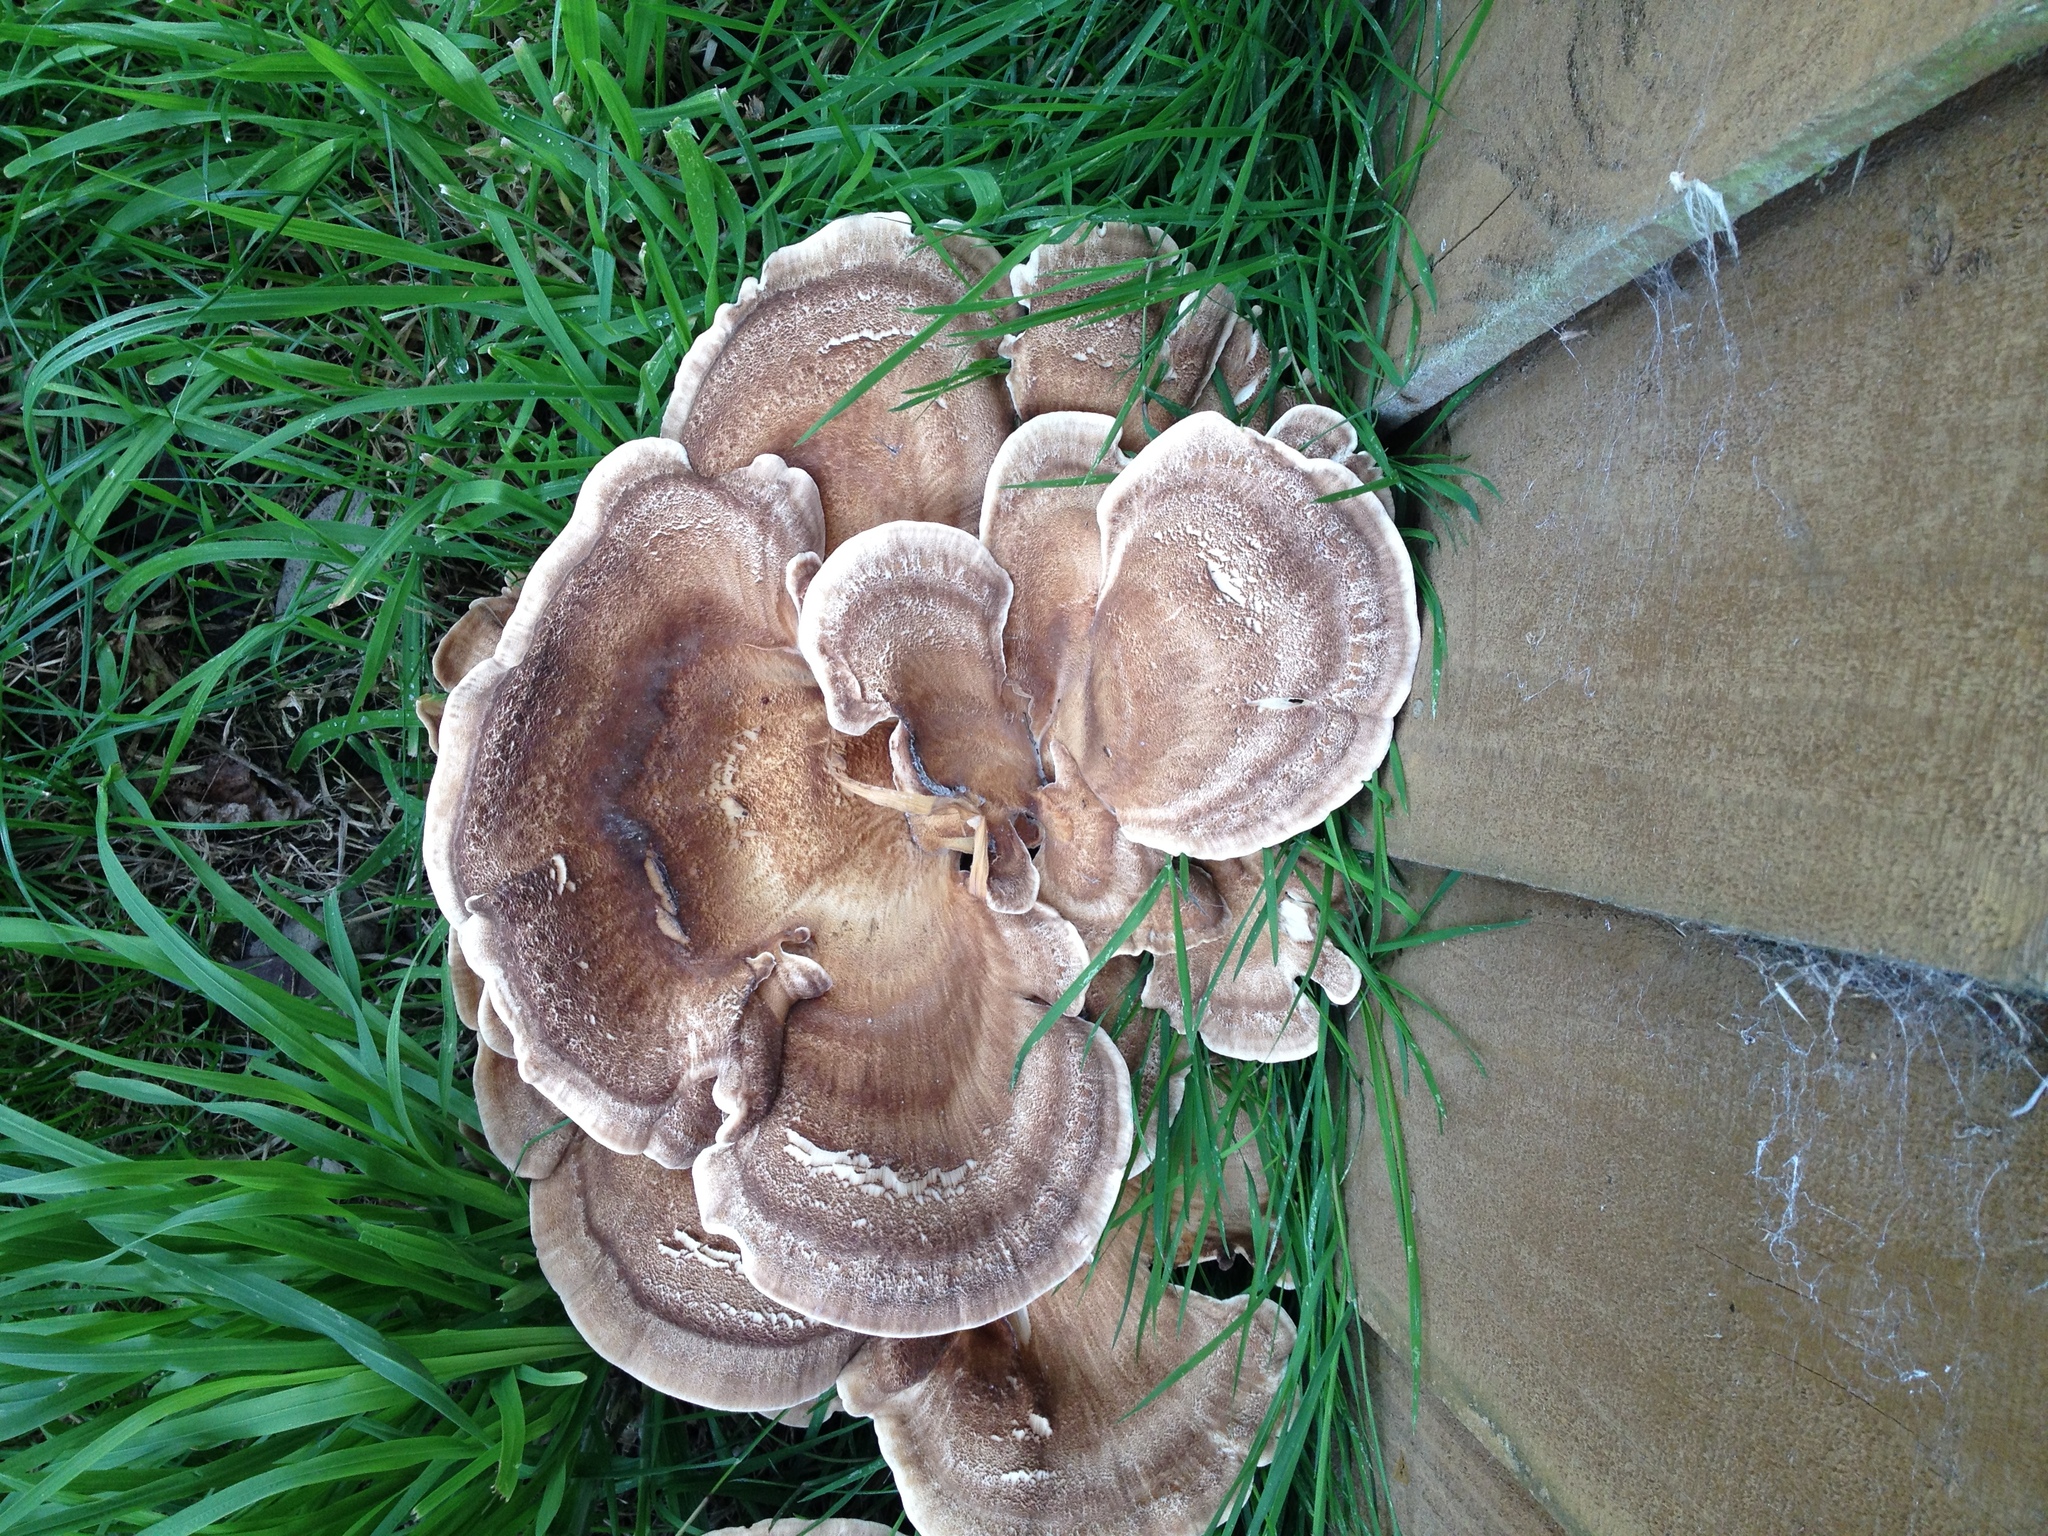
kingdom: Fungi
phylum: Basidiomycota
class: Agaricomycetes
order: Polyporales
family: Meripilaceae
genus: Meripilus
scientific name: Meripilus giganteus
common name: Giant polypore
